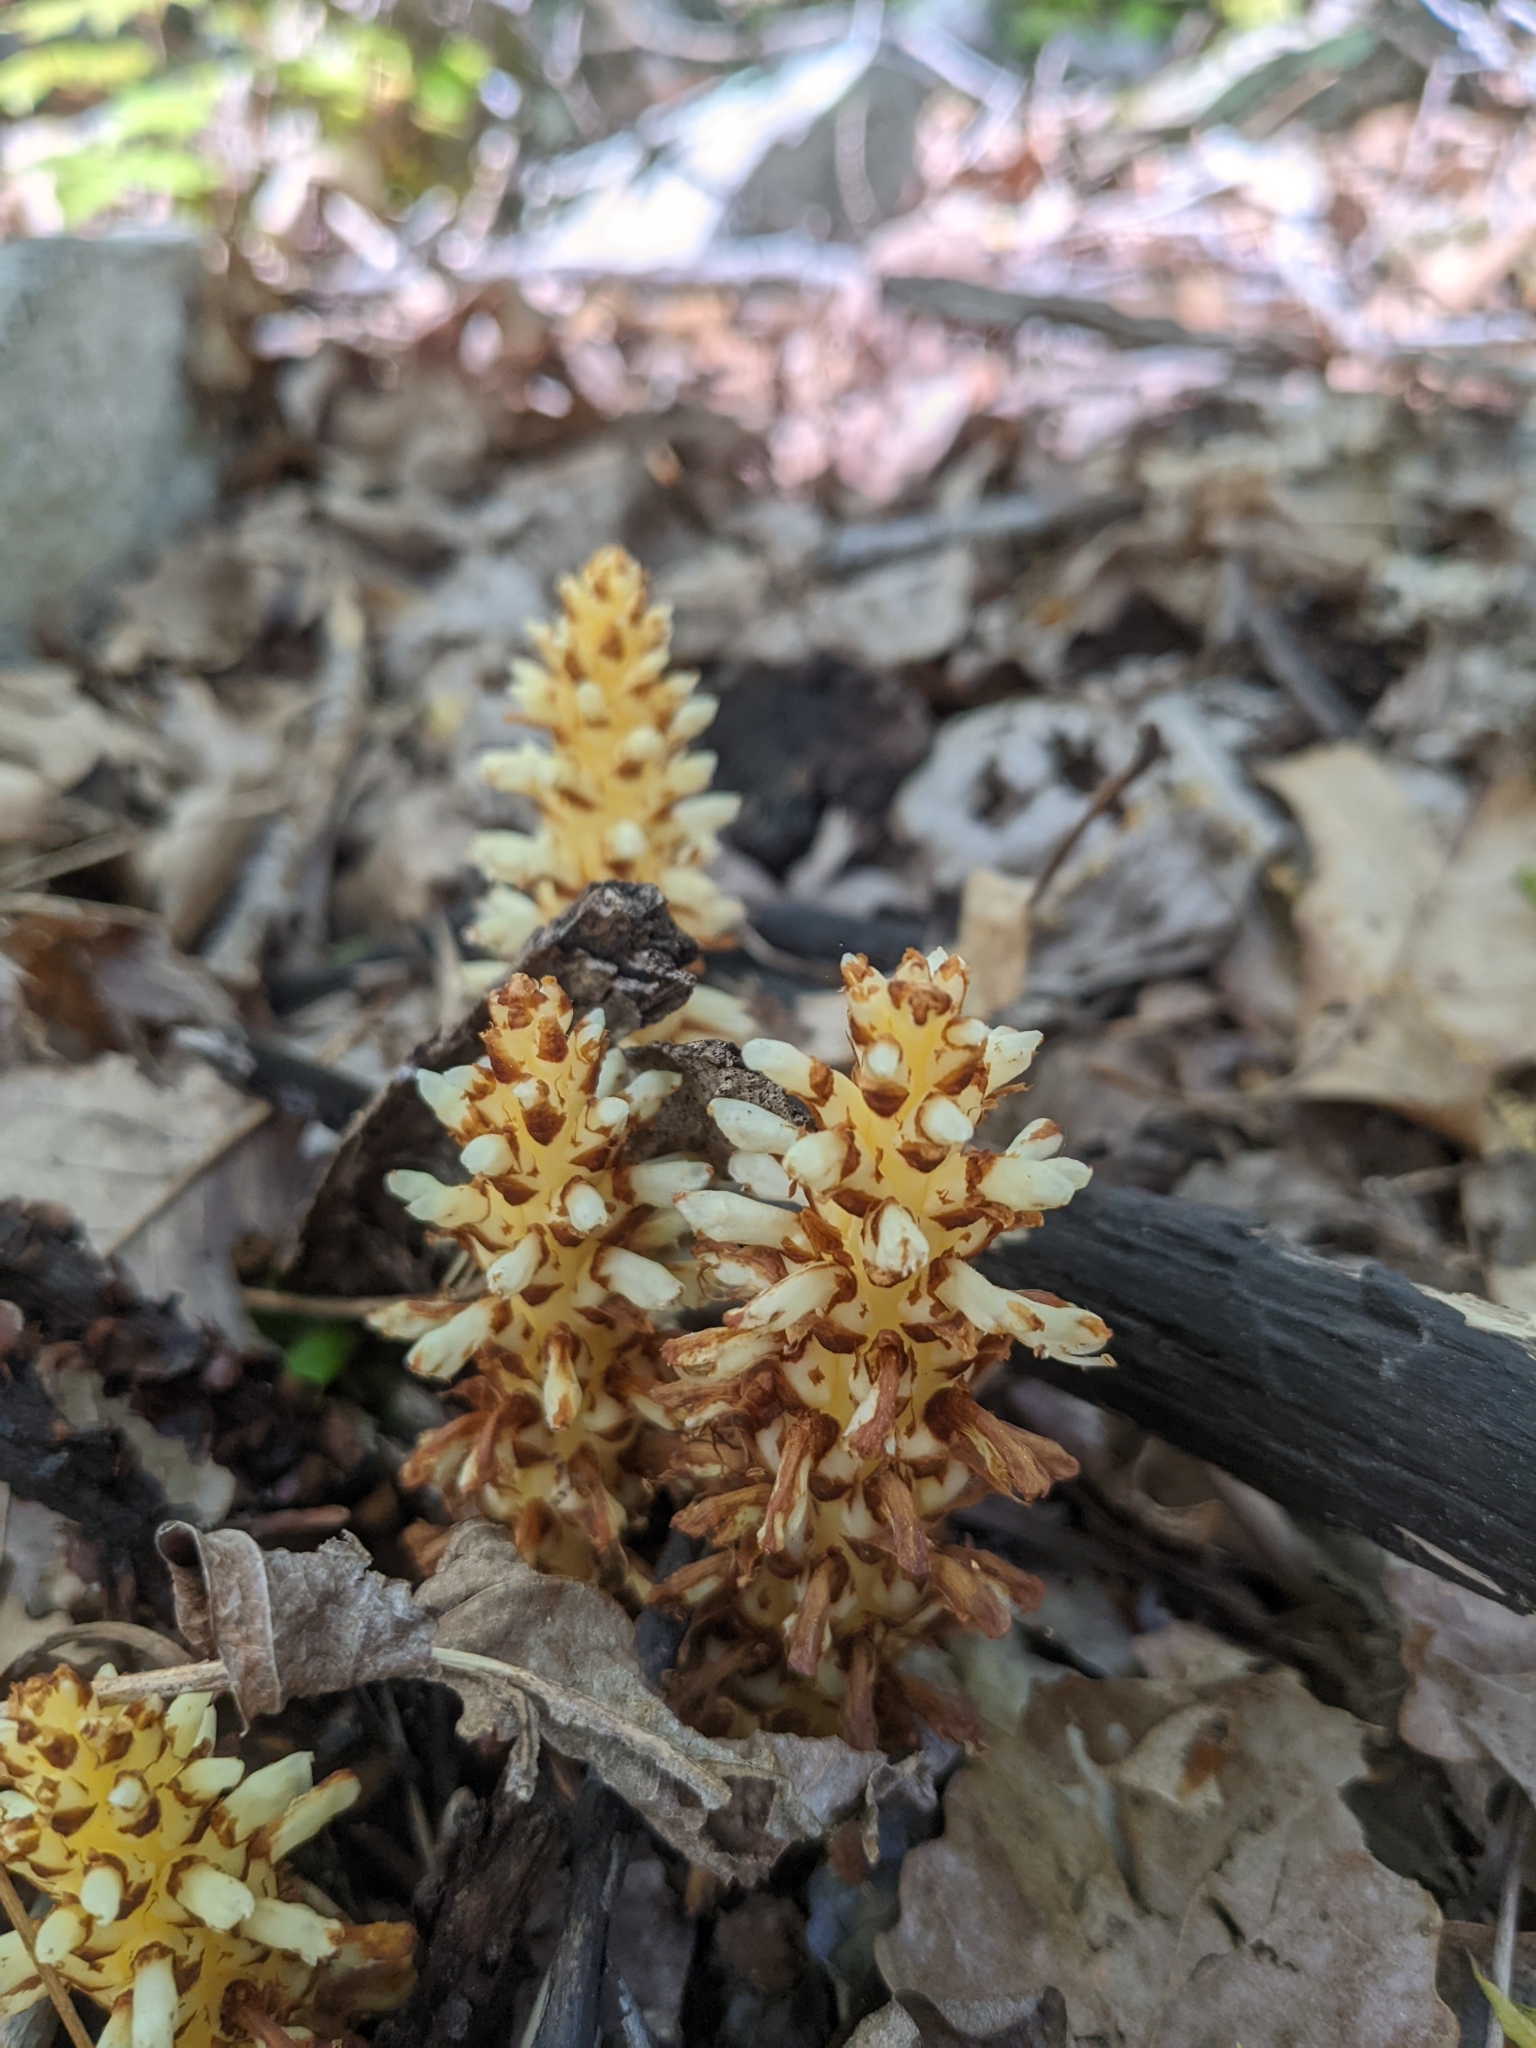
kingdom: Plantae
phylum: Tracheophyta
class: Magnoliopsida
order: Lamiales
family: Orobanchaceae
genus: Conopholis
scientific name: Conopholis americana
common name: American cancer-root
